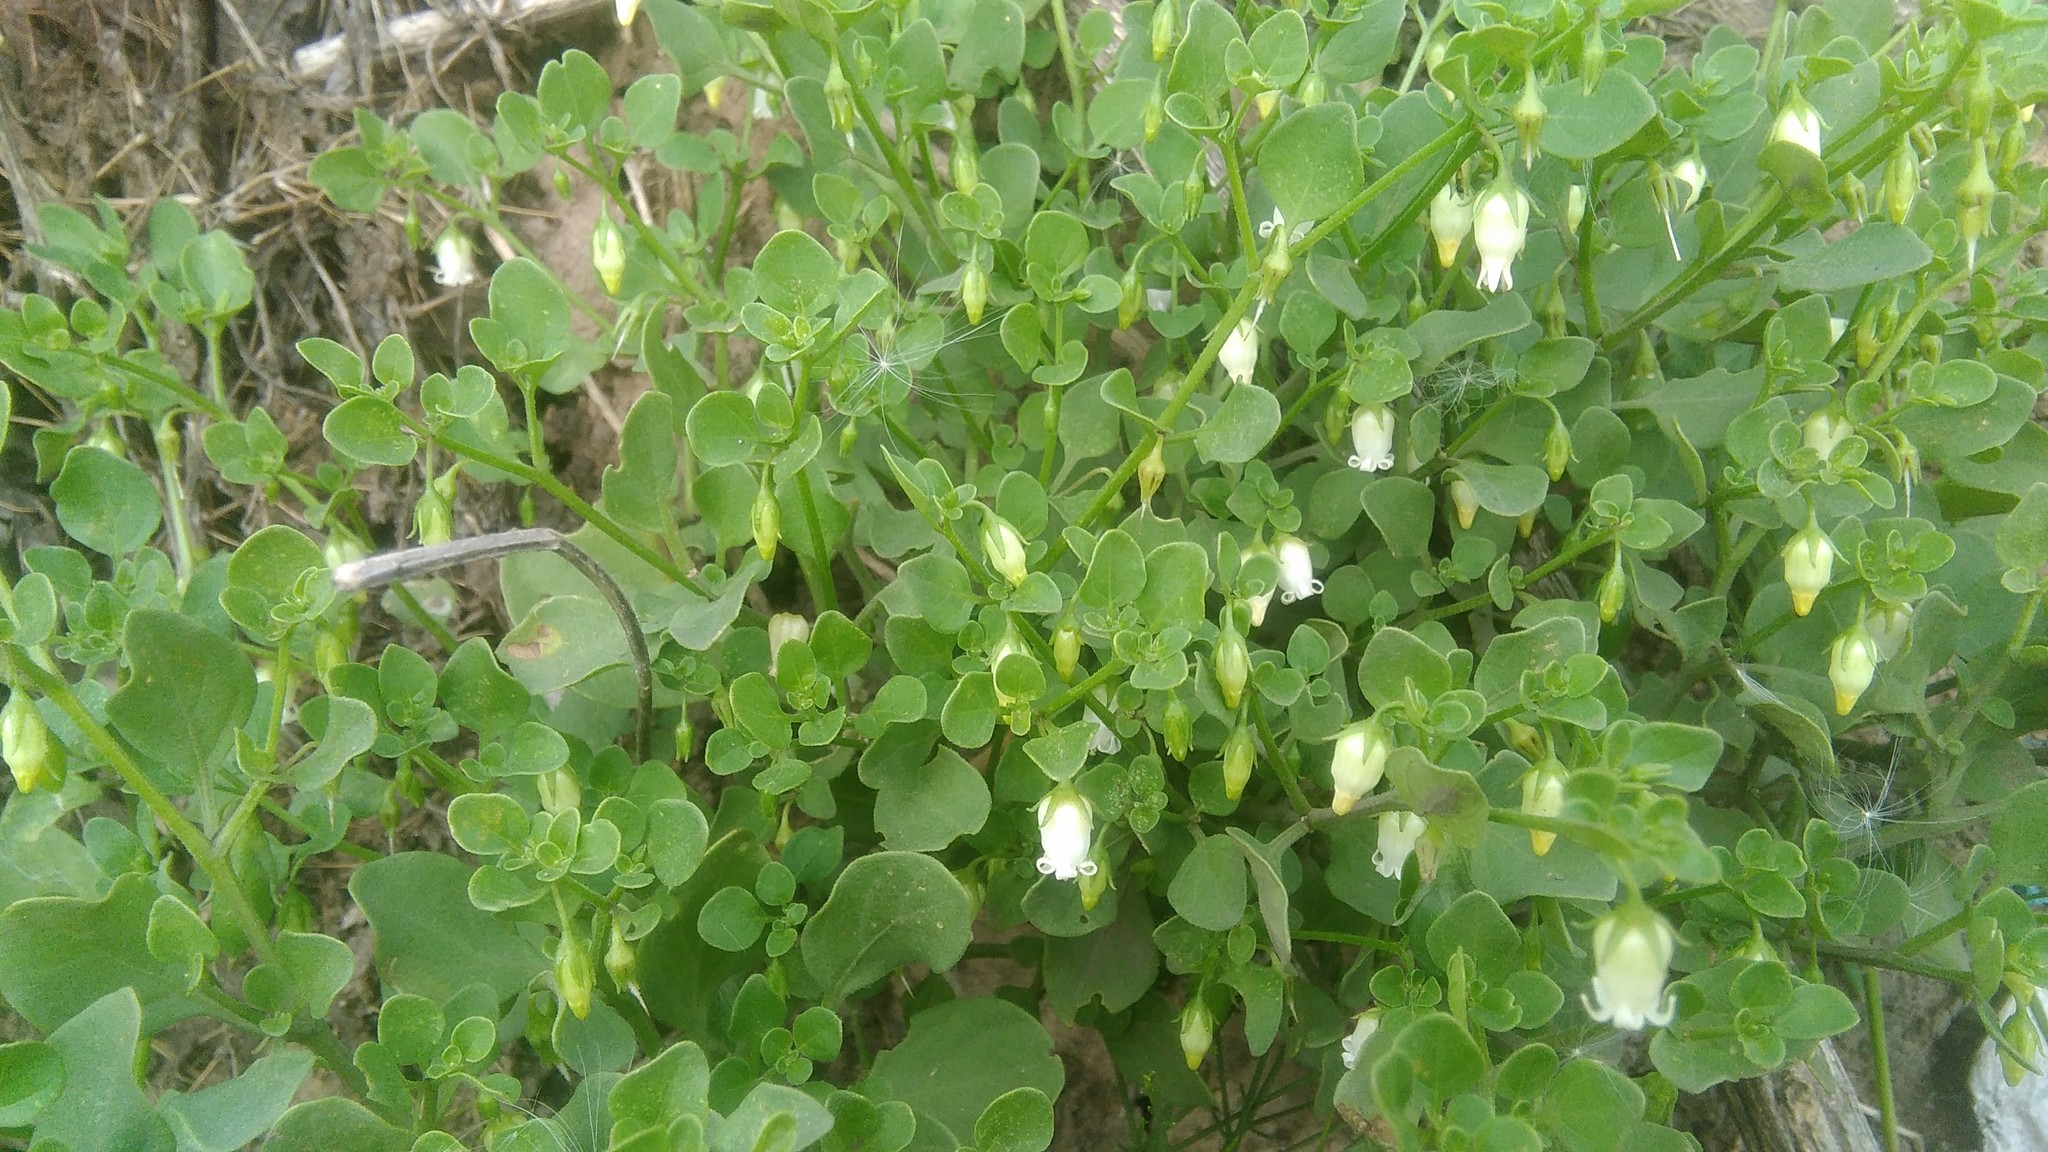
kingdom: Plantae
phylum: Tracheophyta
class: Magnoliopsida
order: Solanales
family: Solanaceae
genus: Salpichroa
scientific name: Salpichroa origanifolia
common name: Lily-of-the-valley-vine
